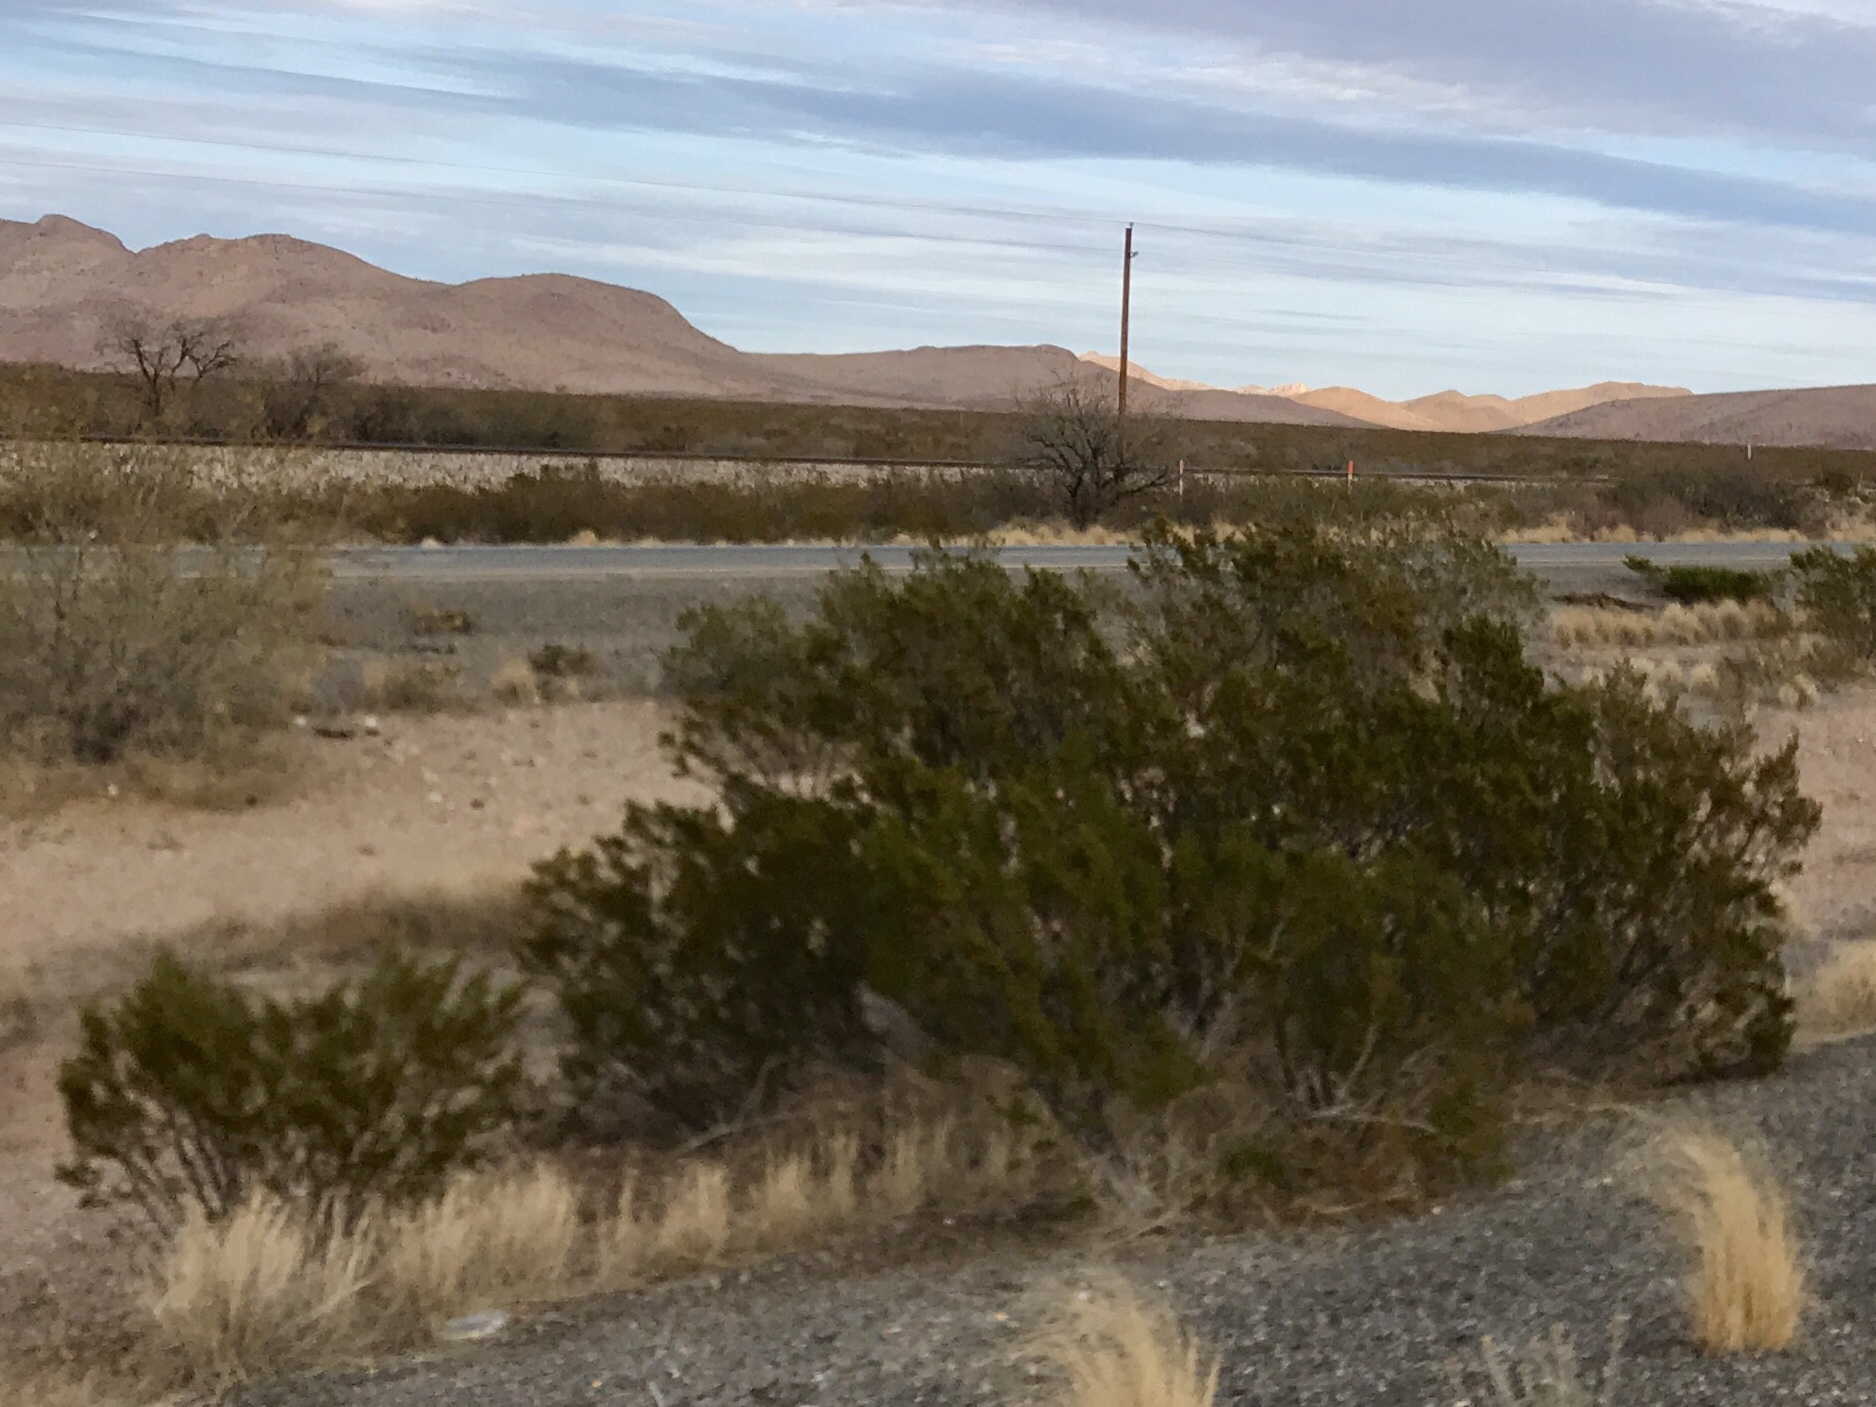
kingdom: Plantae
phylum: Tracheophyta
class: Magnoliopsida
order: Zygophyllales
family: Zygophyllaceae
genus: Larrea
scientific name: Larrea tridentata
